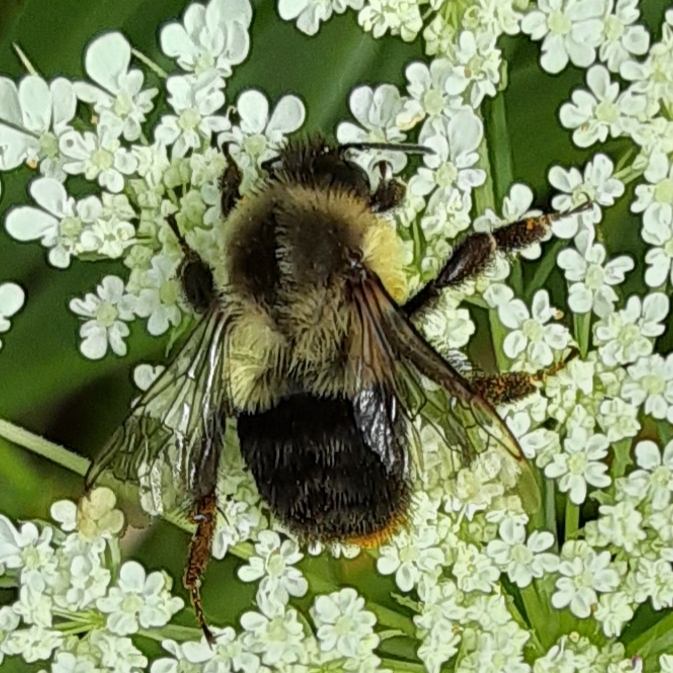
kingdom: Animalia
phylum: Arthropoda
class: Insecta
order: Hymenoptera
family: Apidae
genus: Bombus
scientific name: Bombus impatiens
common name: Common eastern bumble bee
